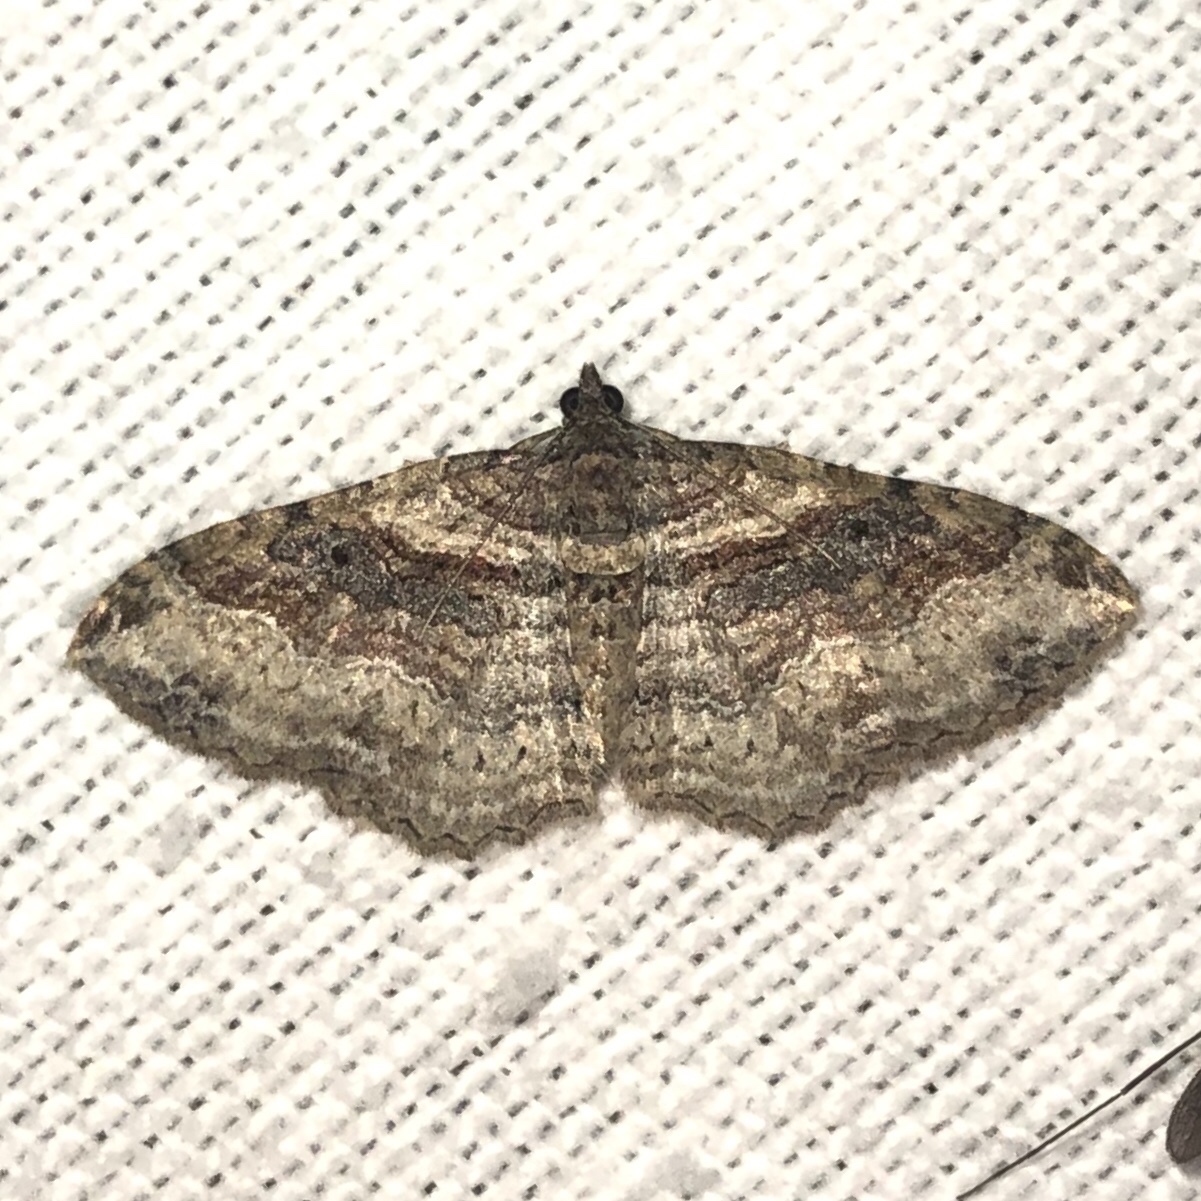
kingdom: Animalia
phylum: Arthropoda
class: Insecta
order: Lepidoptera
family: Geometridae
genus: Costaconvexa
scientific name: Costaconvexa centrostrigaria
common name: Bent-line carpet
